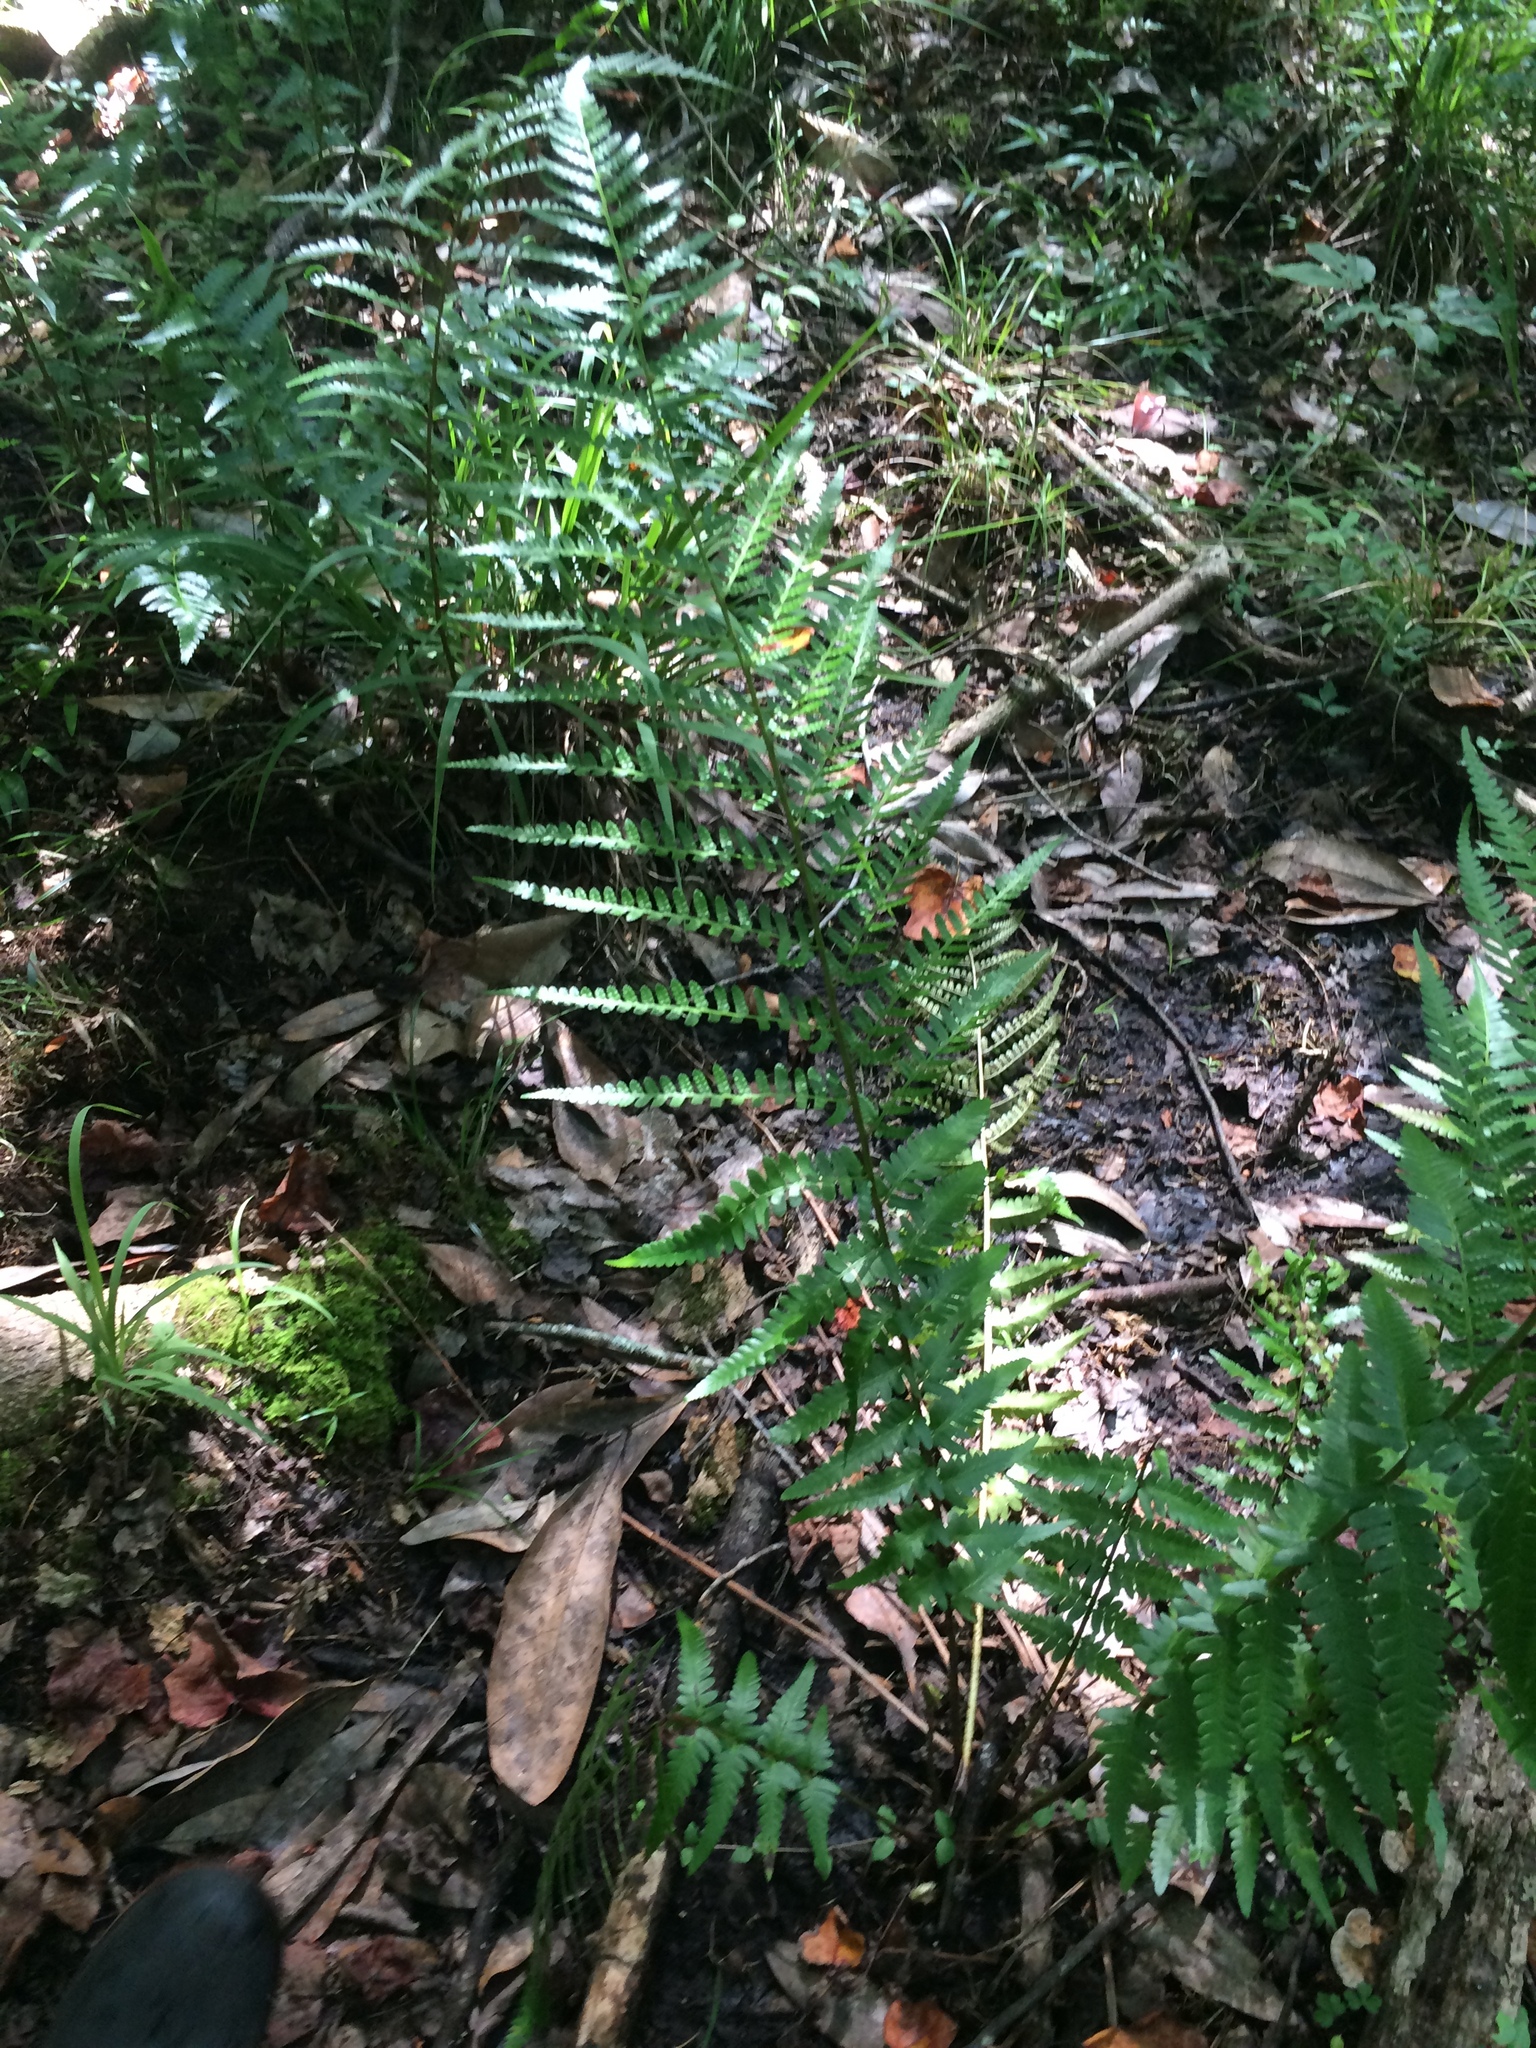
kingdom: Plantae
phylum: Tracheophyta
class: Polypodiopsida
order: Polypodiales
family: Dryopteridaceae
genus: Dryopteris
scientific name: Dryopteris ludoviciana
